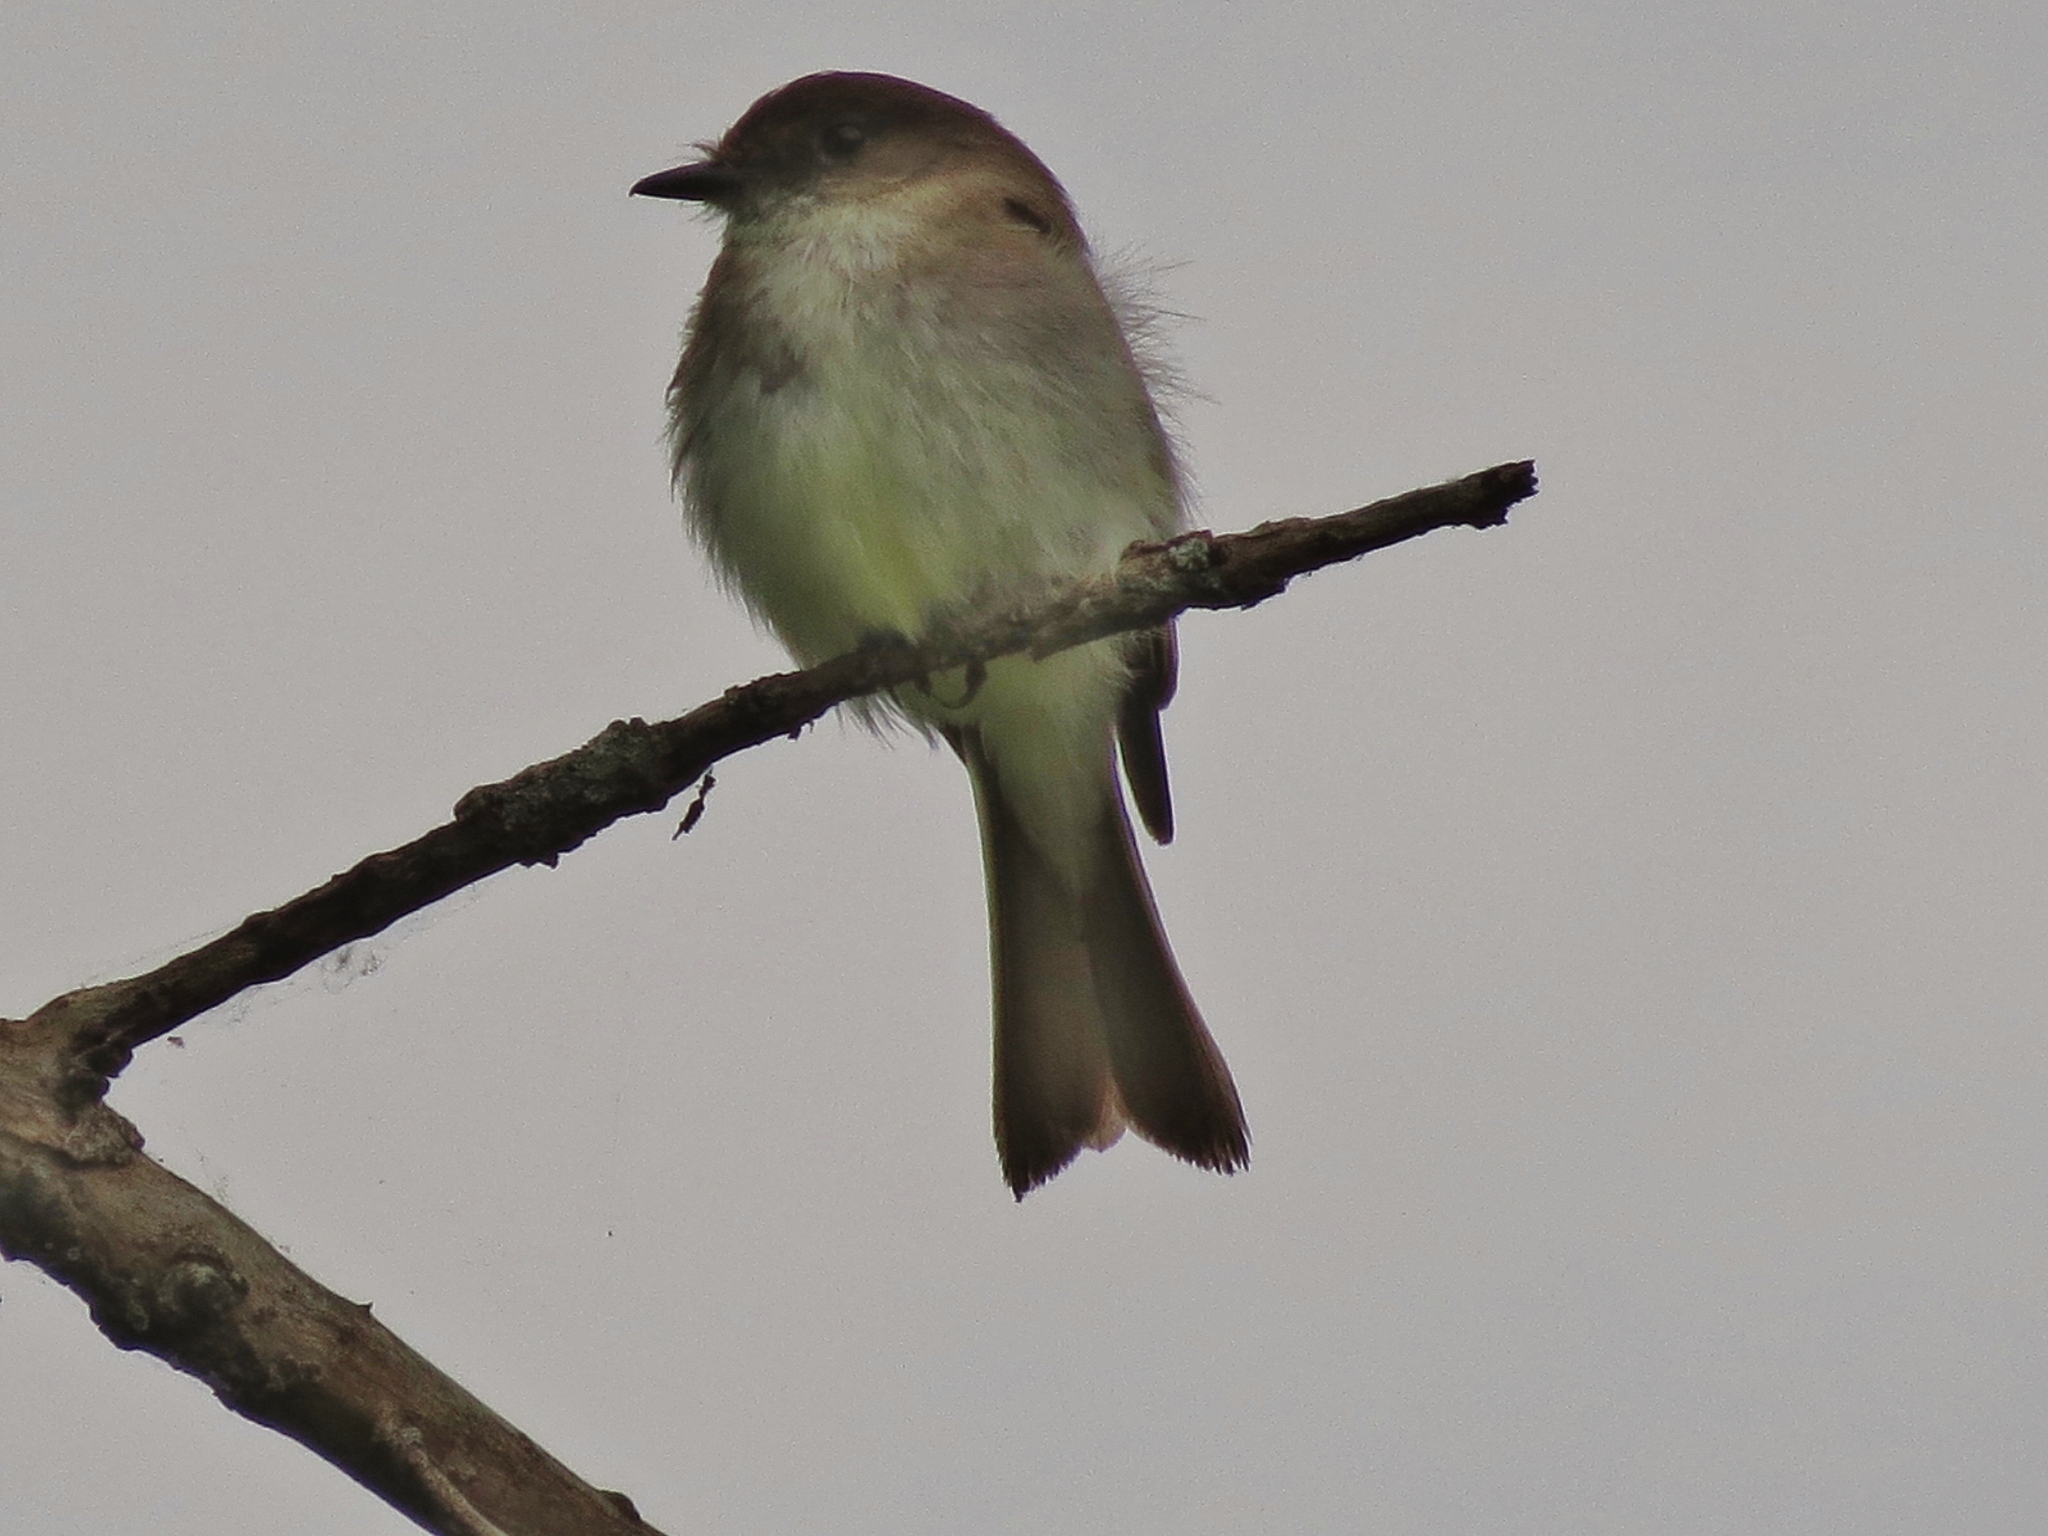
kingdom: Animalia
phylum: Chordata
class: Aves
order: Passeriformes
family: Tyrannidae
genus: Sayornis
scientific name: Sayornis phoebe
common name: Eastern phoebe
